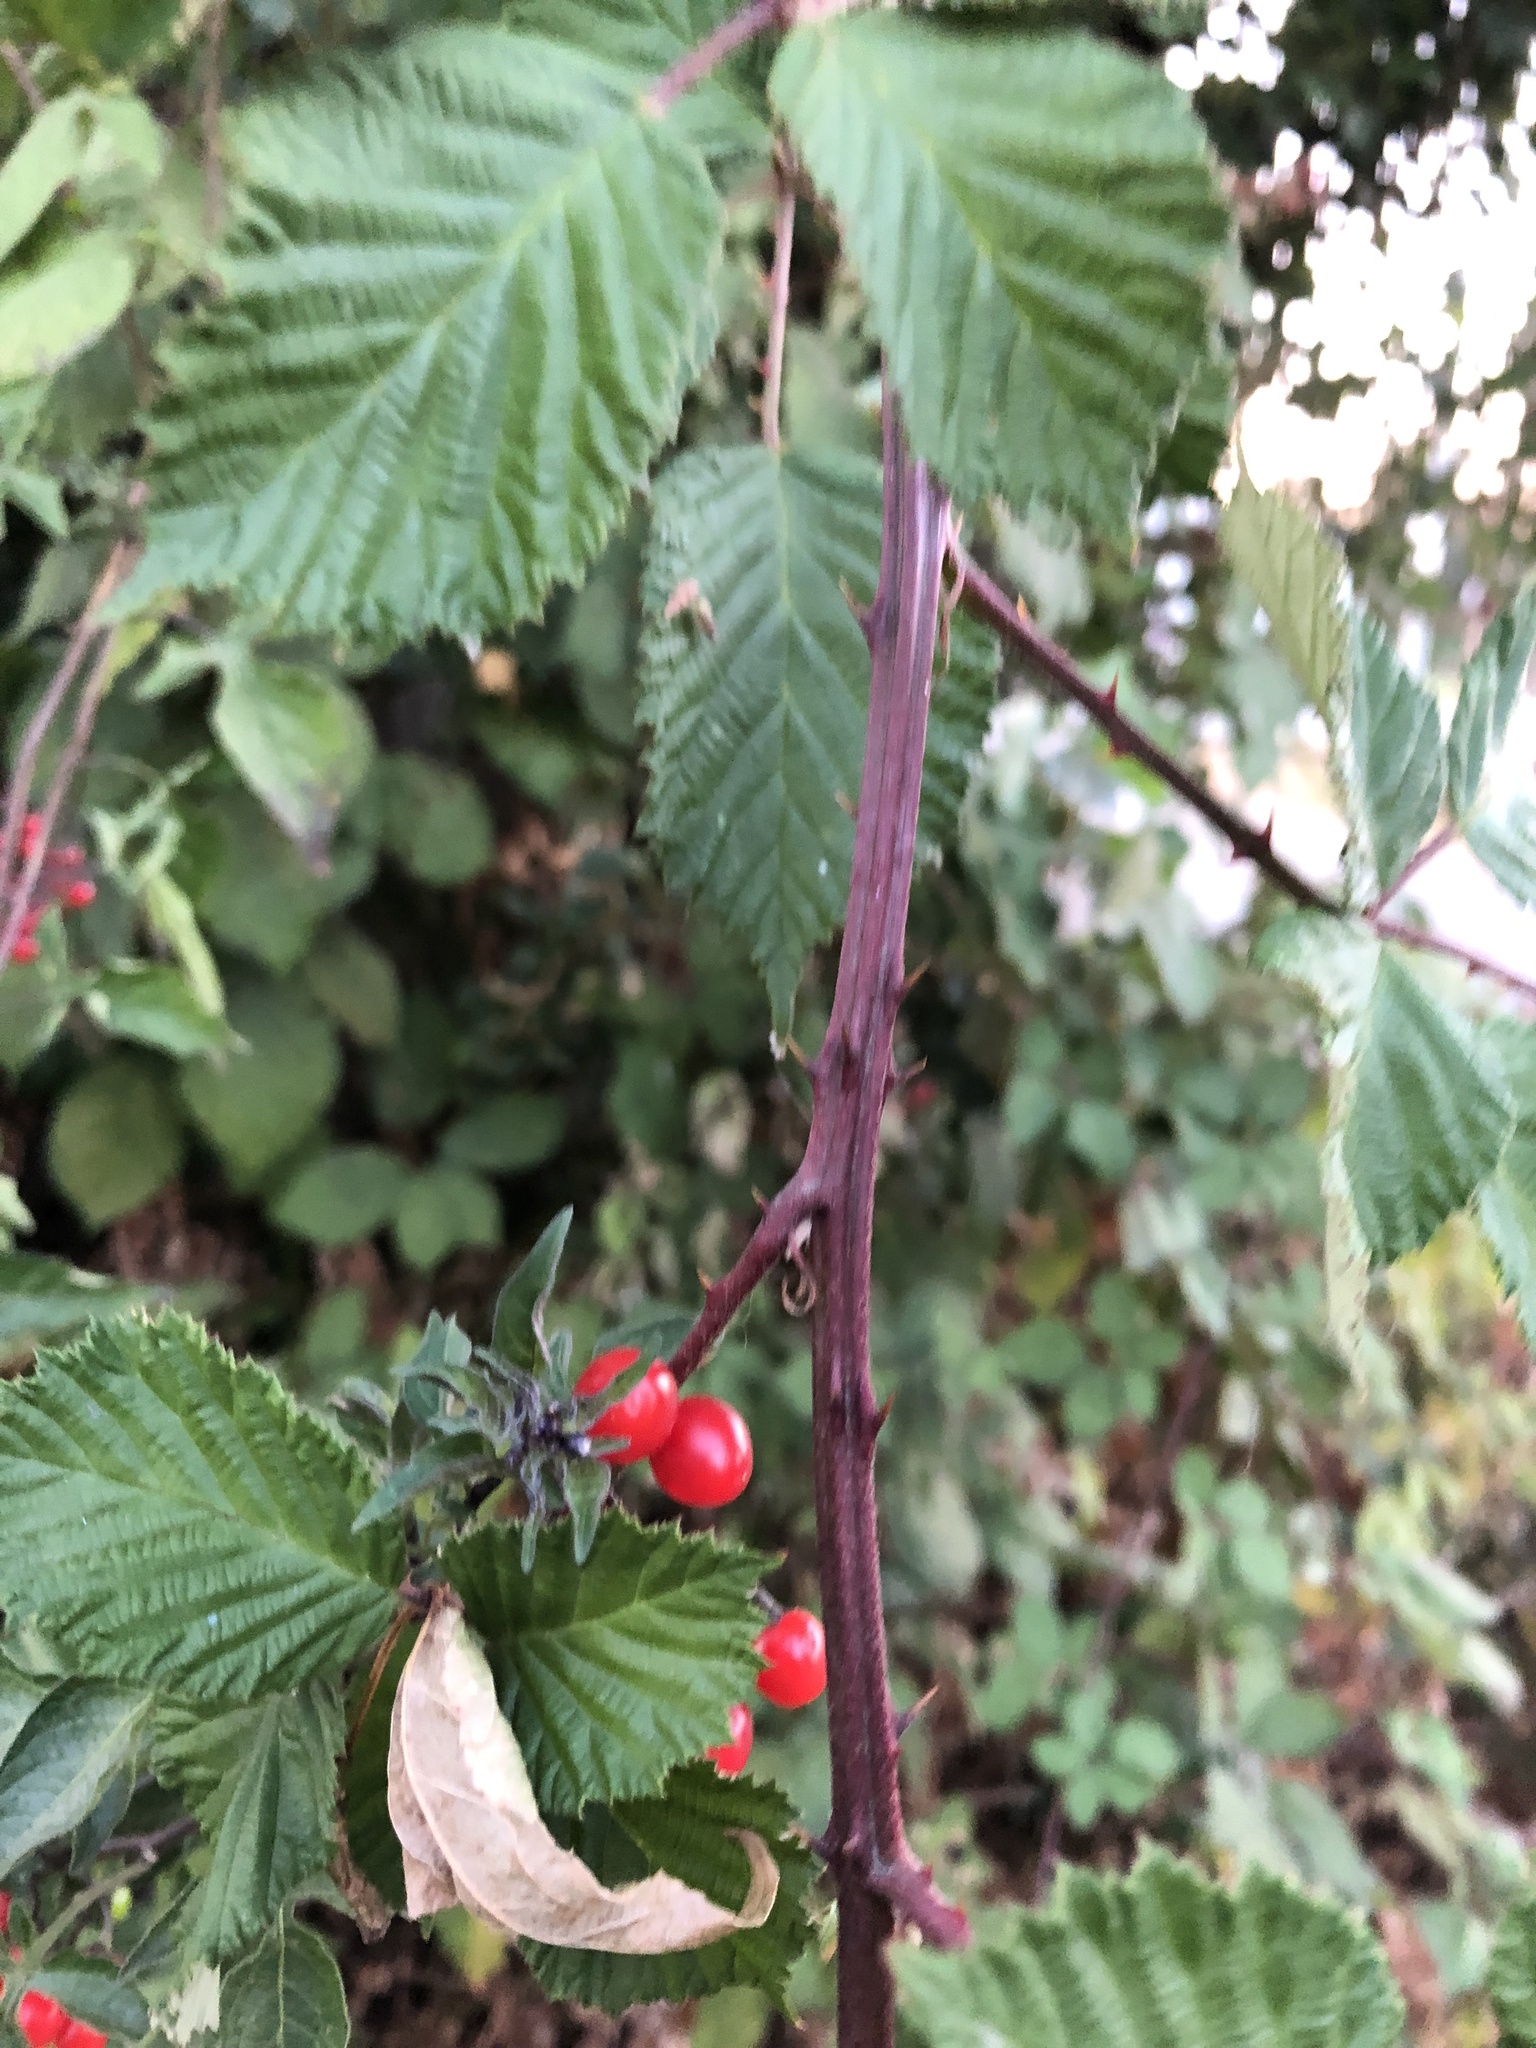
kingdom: Plantae
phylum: Tracheophyta
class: Magnoliopsida
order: Solanales
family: Solanaceae
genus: Solanum
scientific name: Solanum dulcamara
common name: Climbing nightshade
